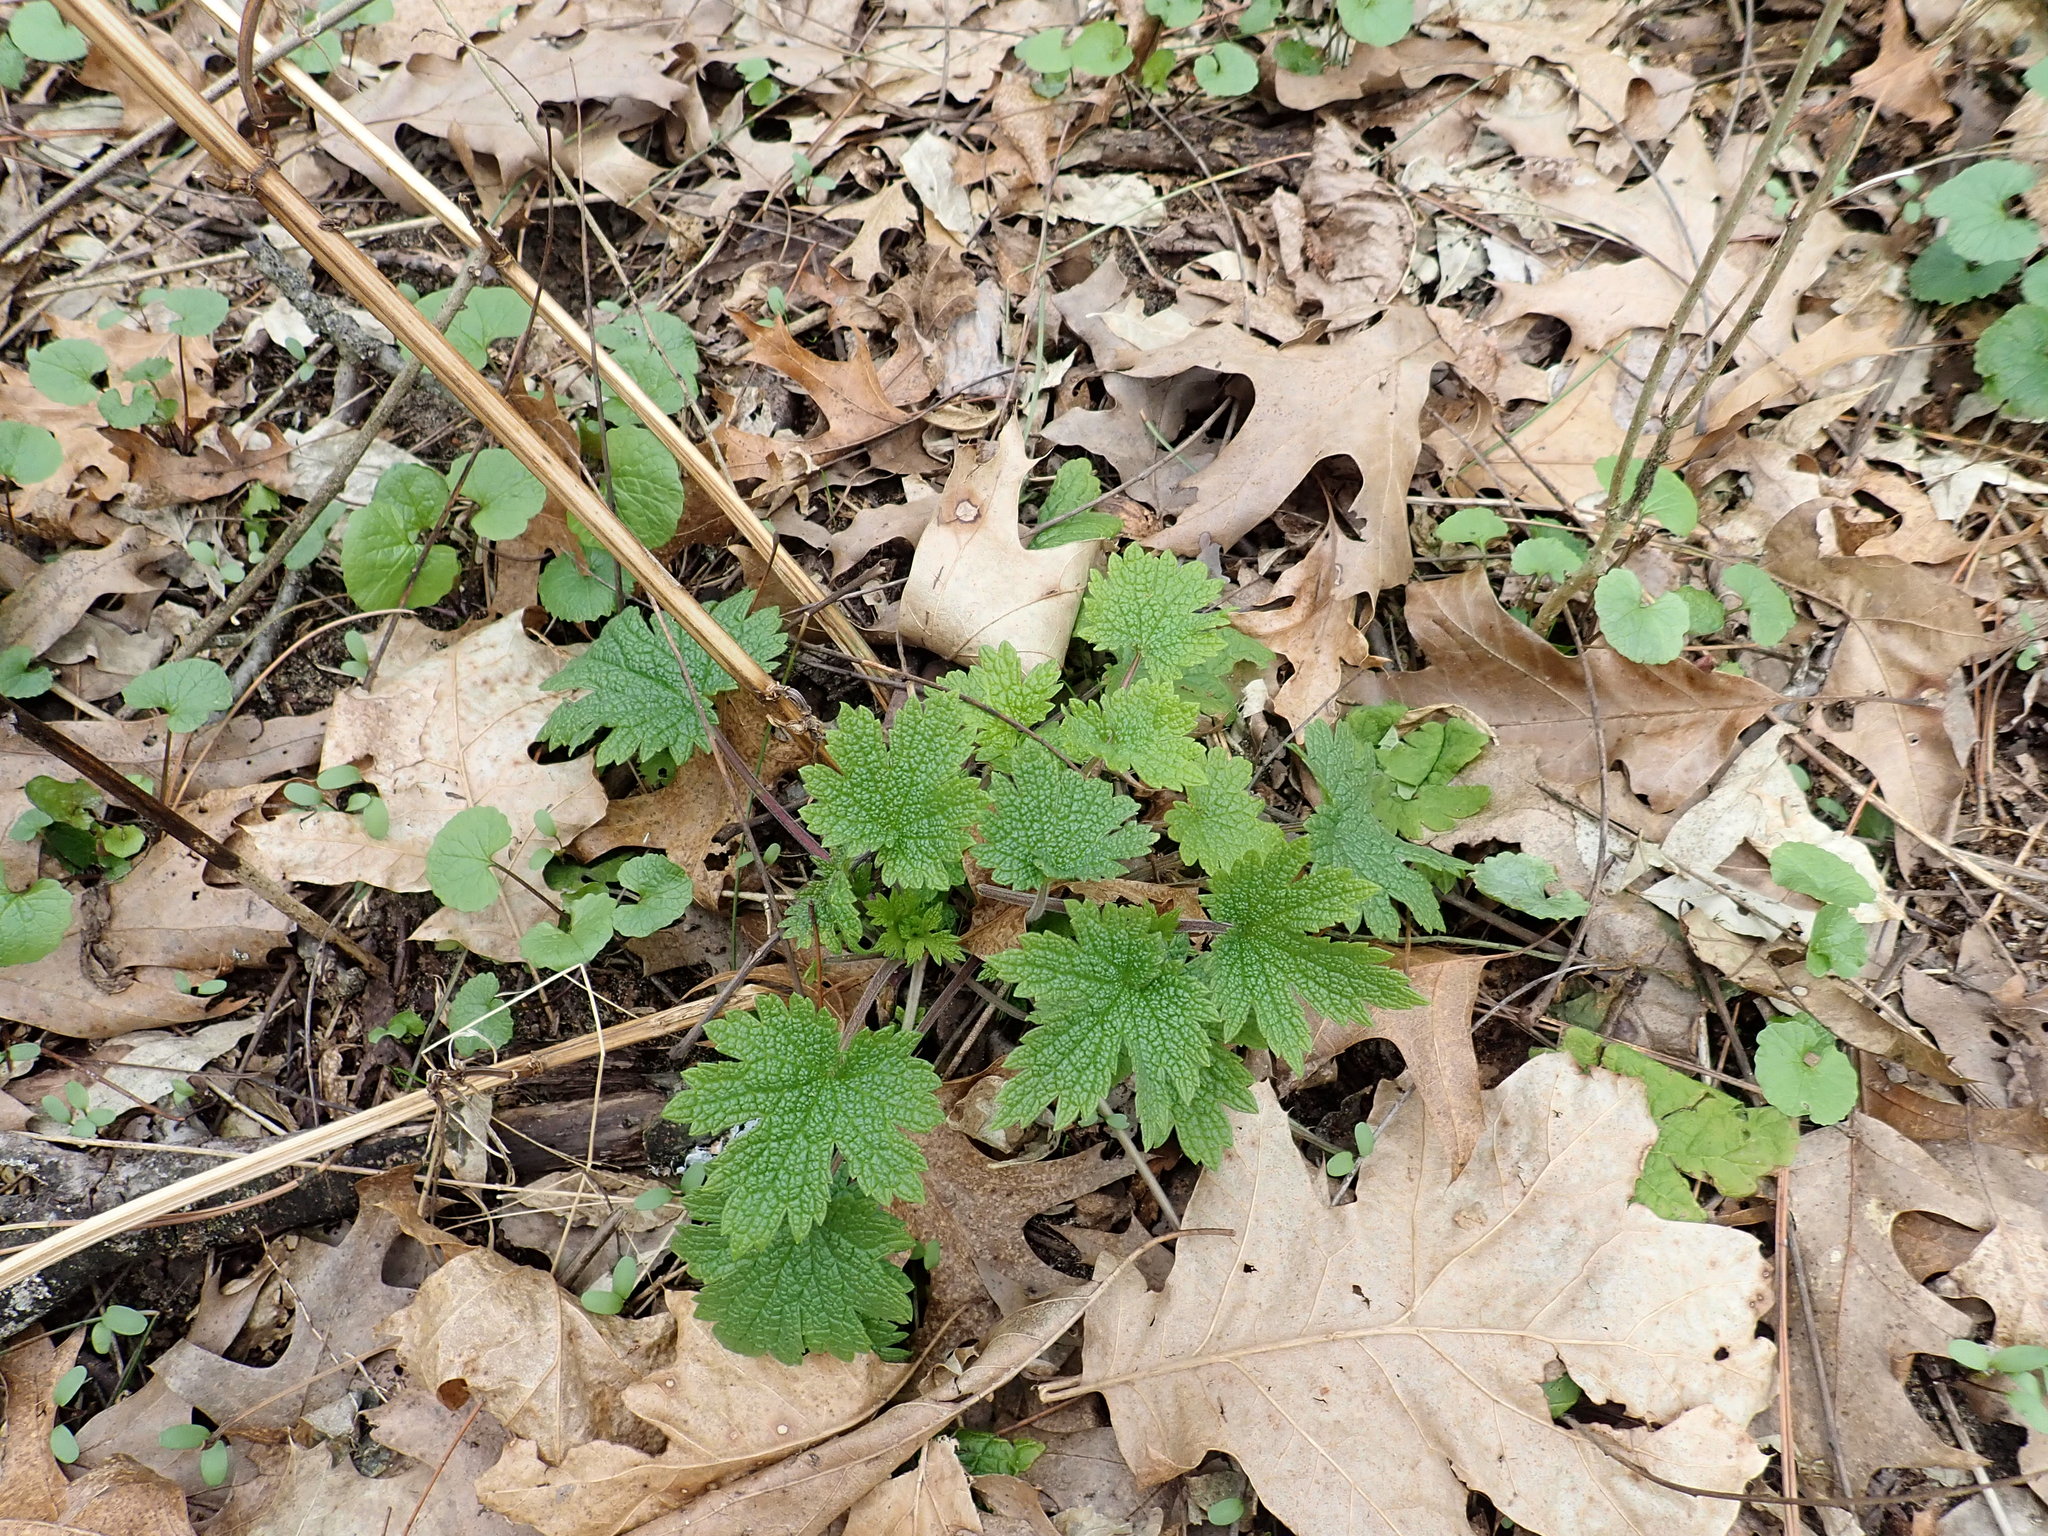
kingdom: Plantae
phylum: Tracheophyta
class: Magnoliopsida
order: Lamiales
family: Lamiaceae
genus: Leonurus
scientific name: Leonurus cardiaca
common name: Motherwort
